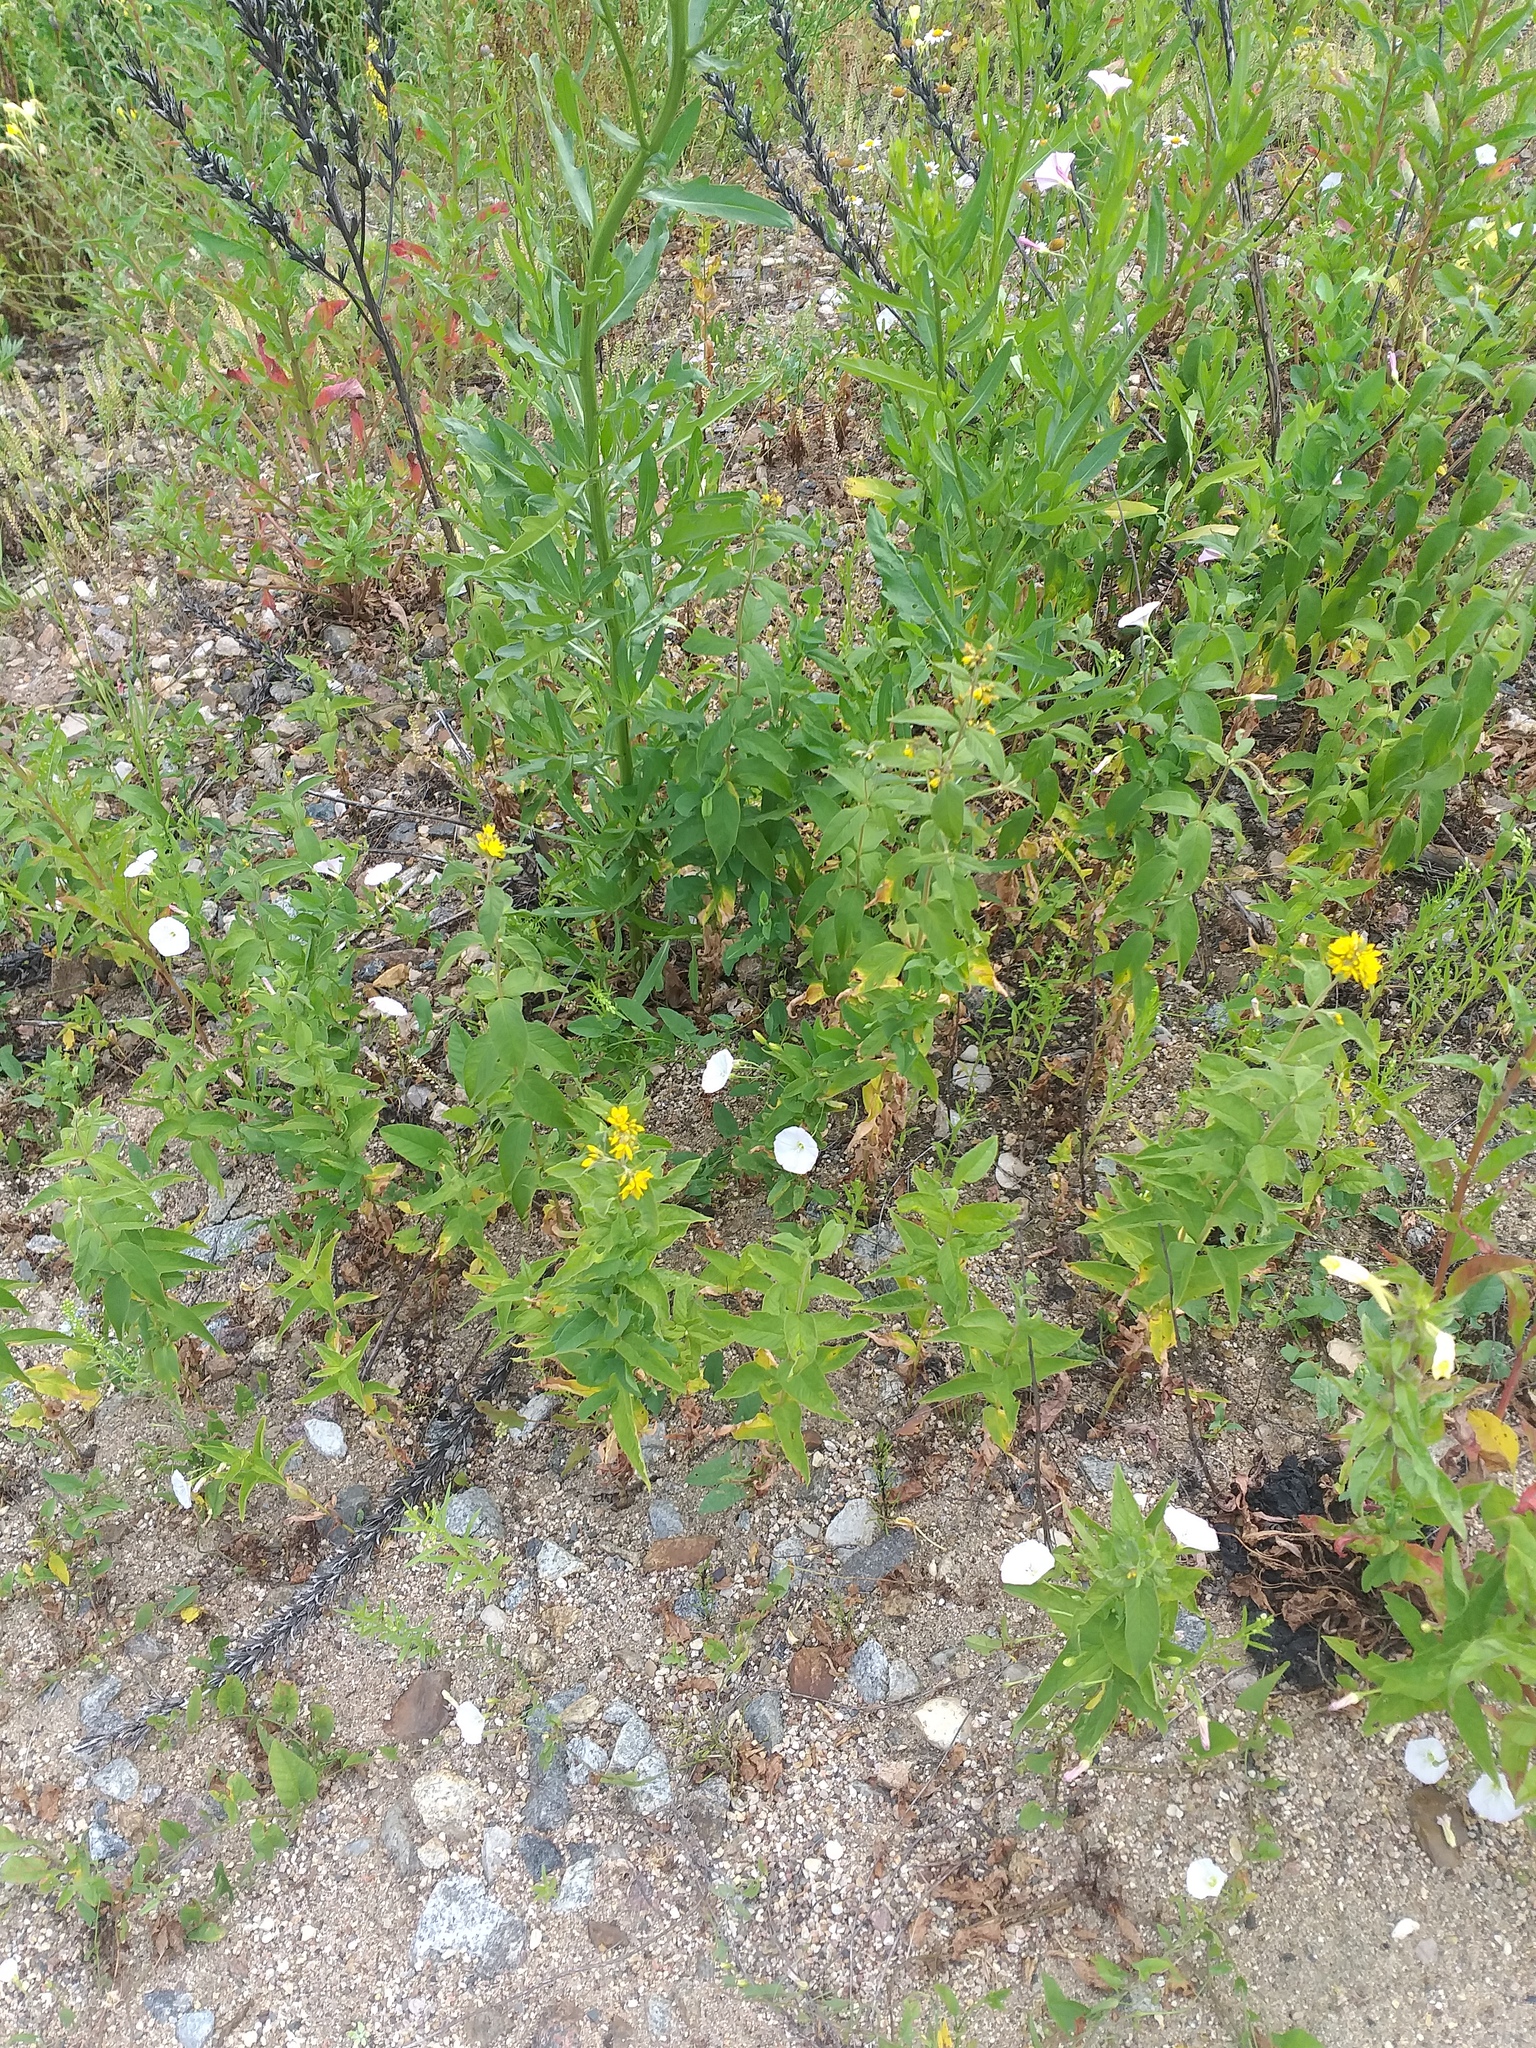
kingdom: Plantae
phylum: Tracheophyta
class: Magnoliopsida
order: Ericales
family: Primulaceae
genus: Lysimachia
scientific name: Lysimachia vulgaris
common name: Yellow loosestrife
